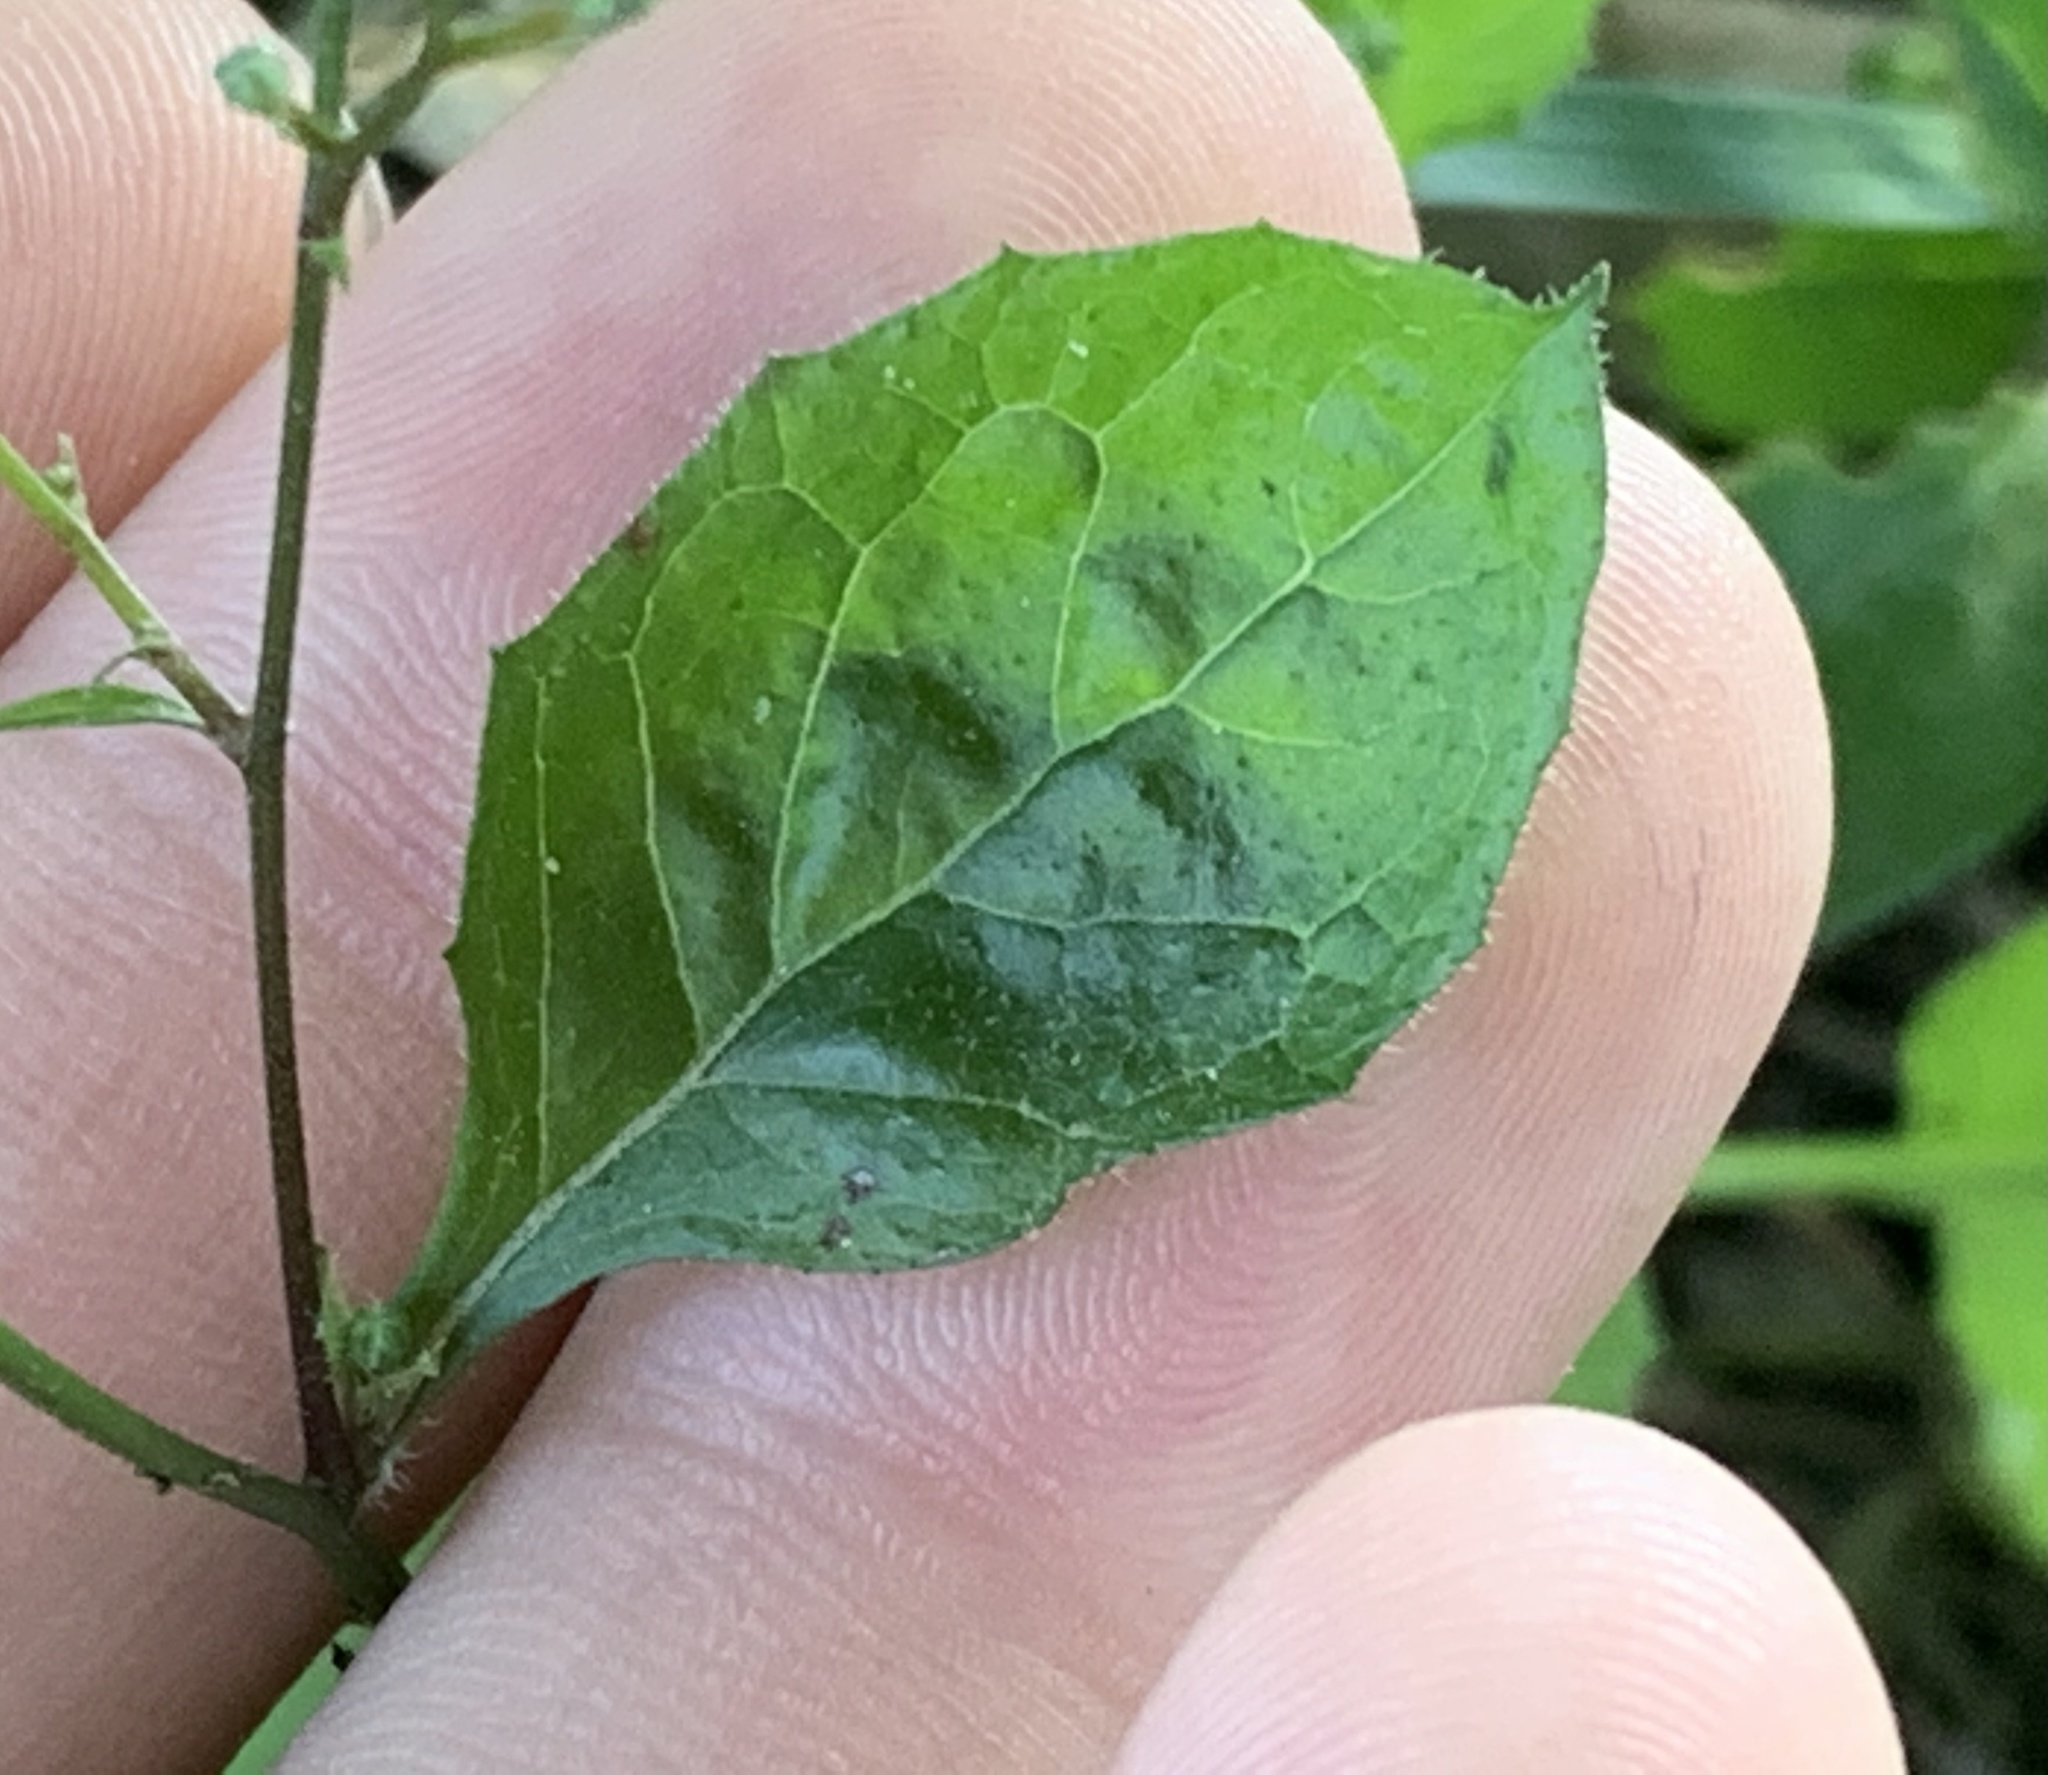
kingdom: Plantae
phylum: Tracheophyta
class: Magnoliopsida
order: Asterales
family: Asteraceae
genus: Lapsana
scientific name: Lapsana communis
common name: Nipplewort
